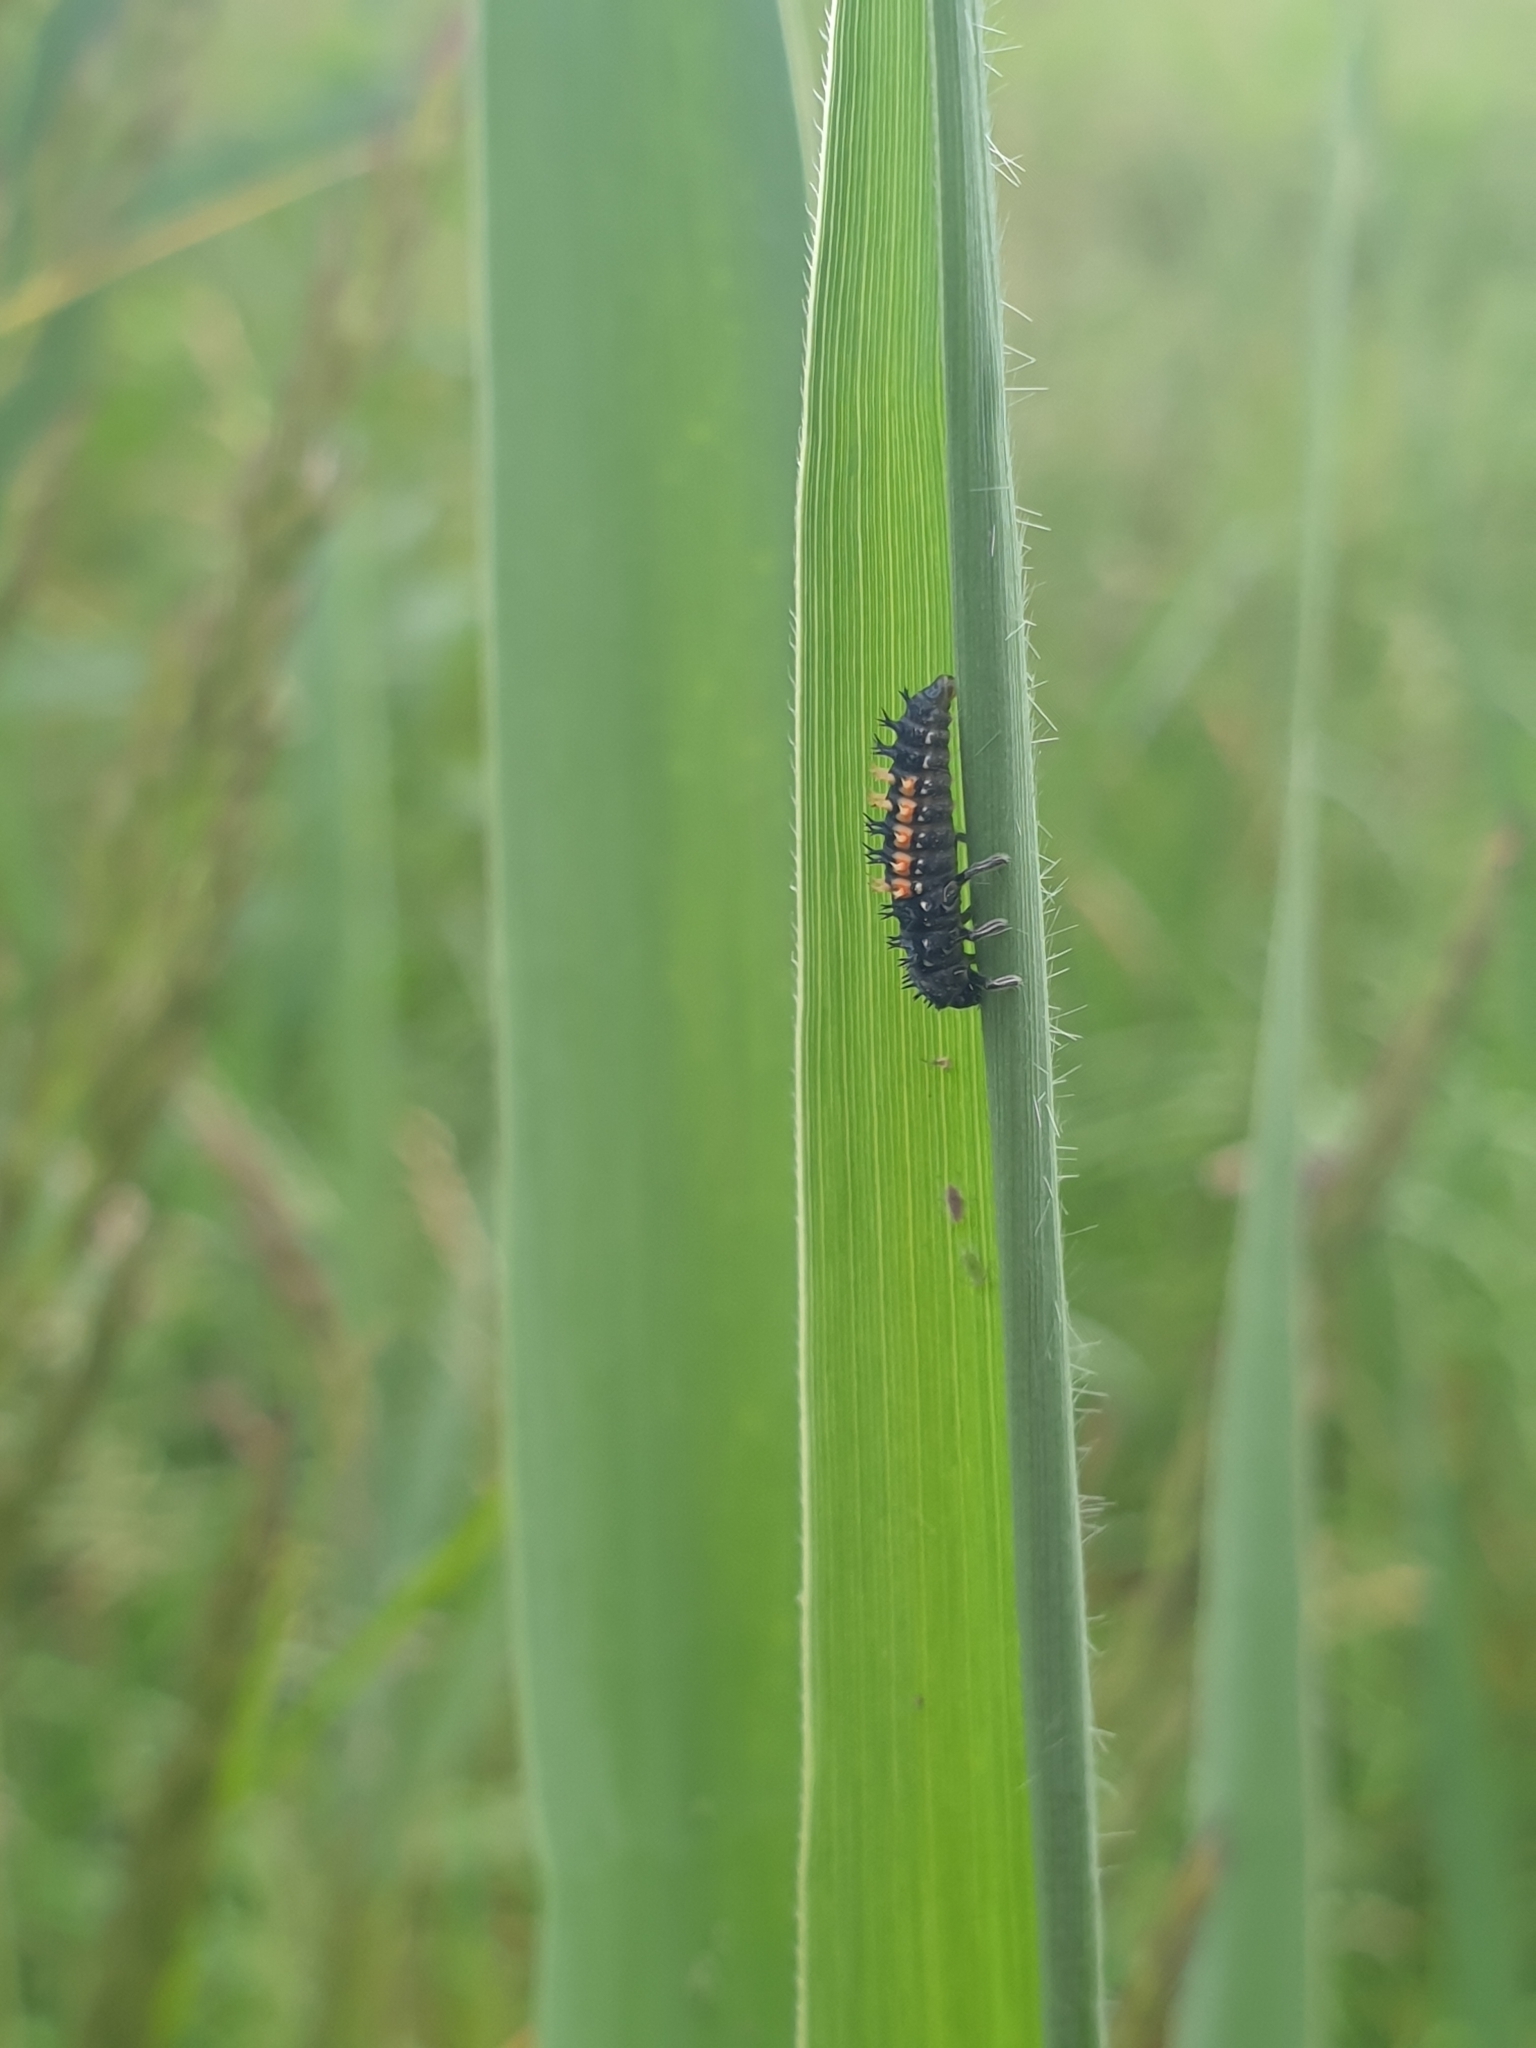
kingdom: Animalia
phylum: Arthropoda
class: Insecta
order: Coleoptera
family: Coccinellidae
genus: Harmonia
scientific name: Harmonia axyridis
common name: Harlequin ladybird
